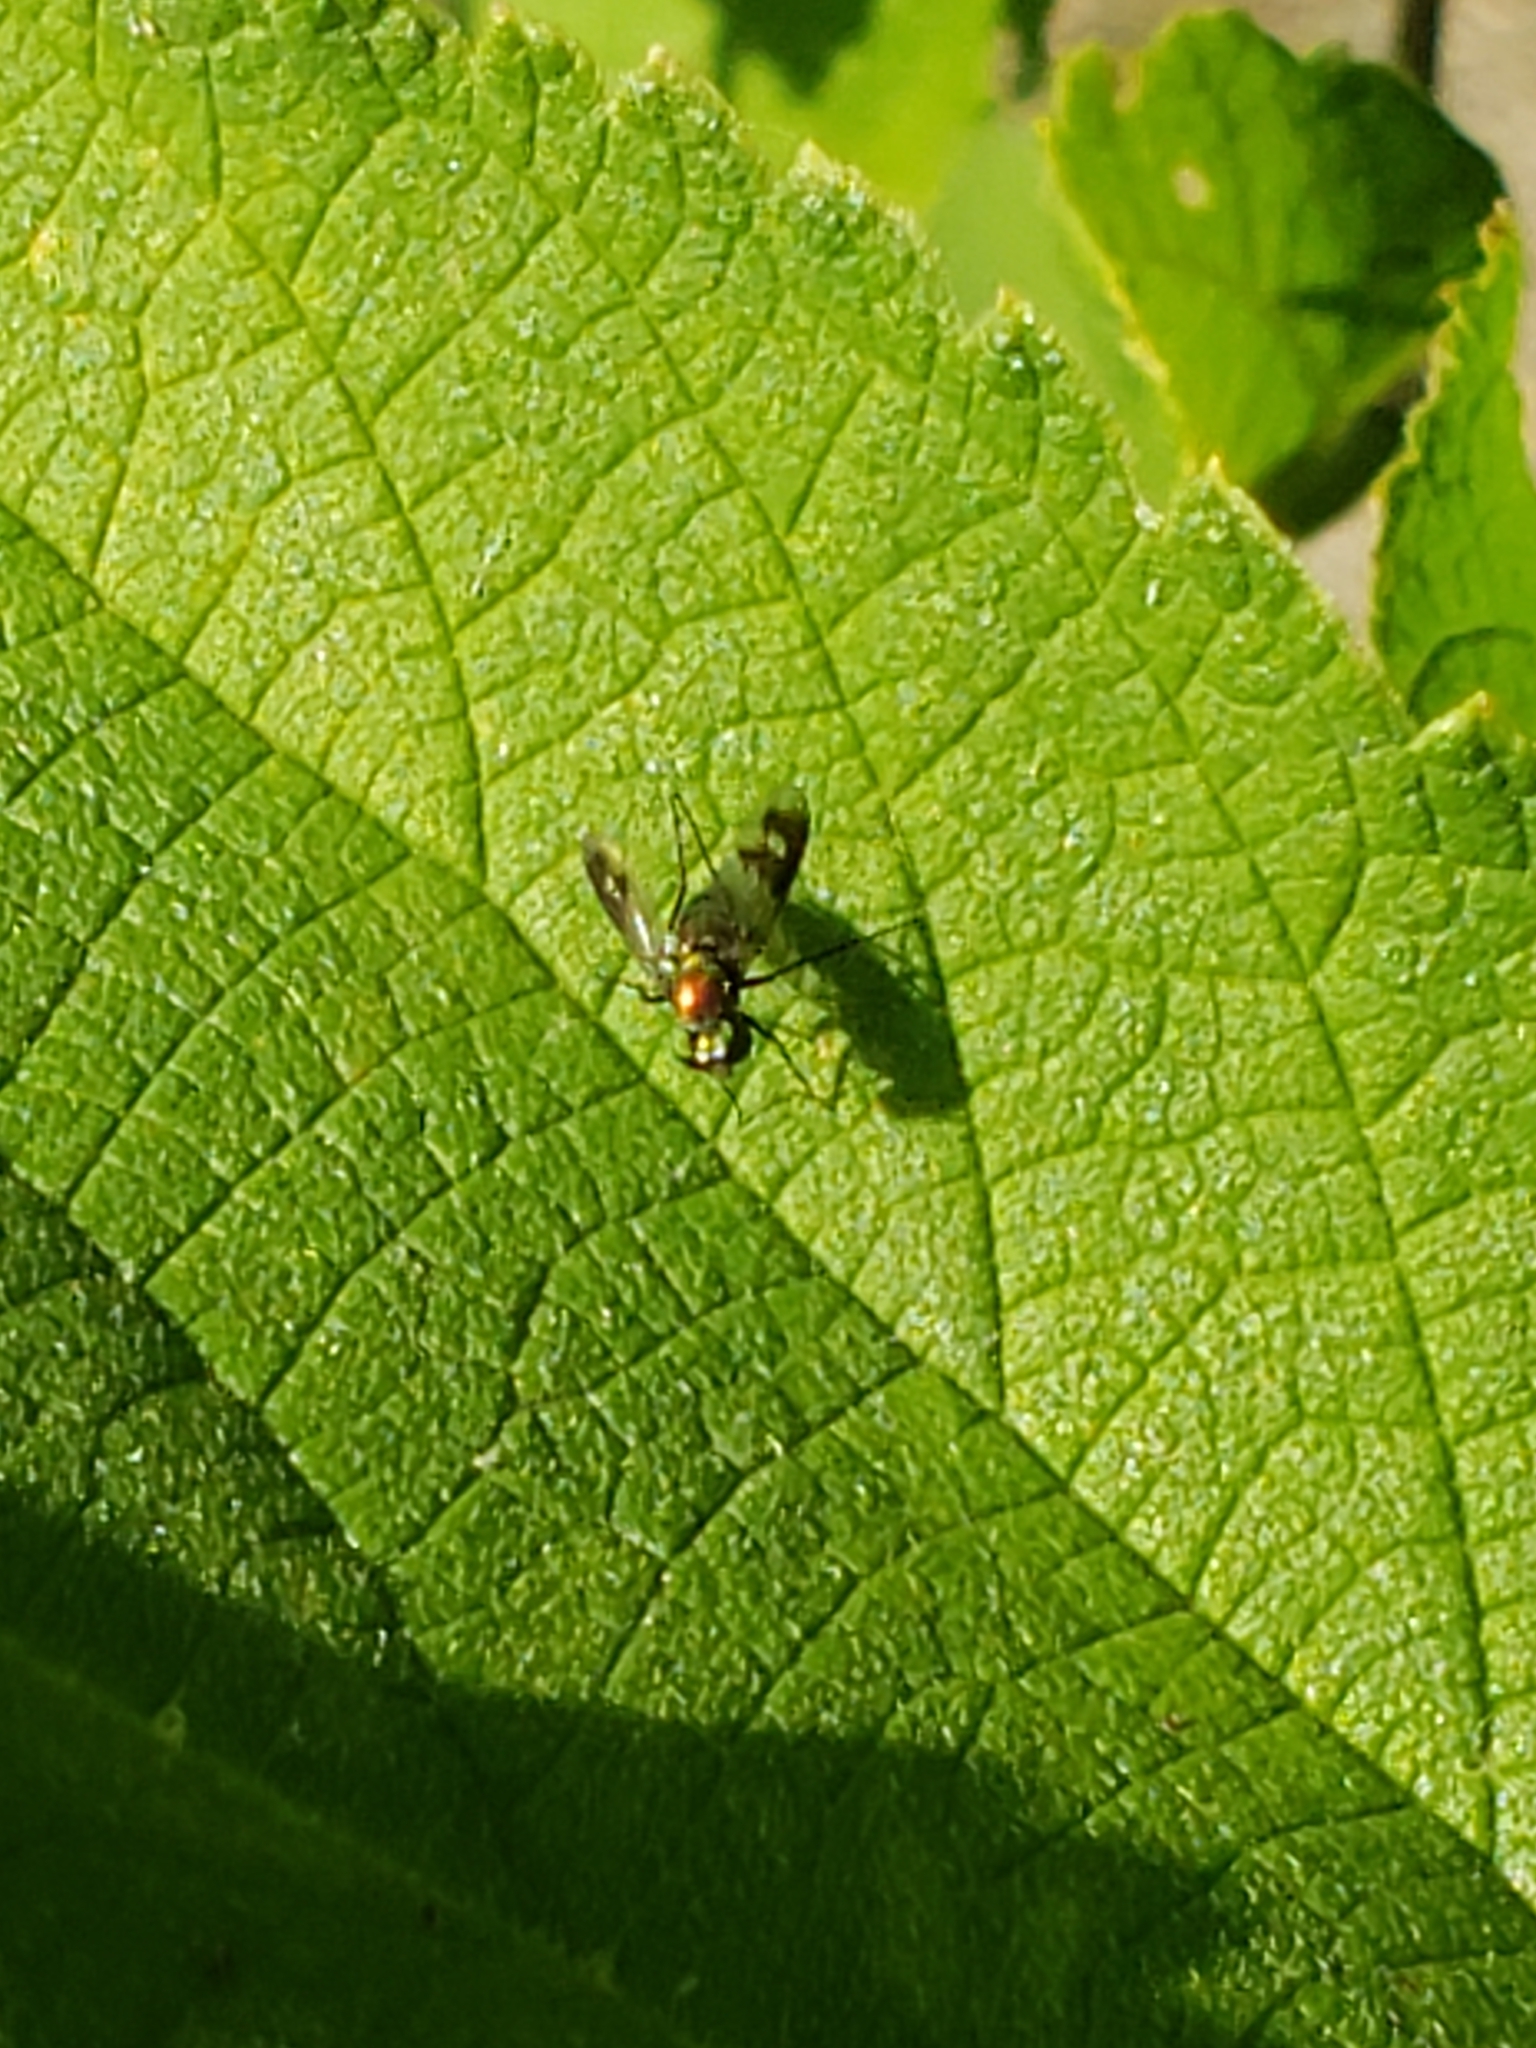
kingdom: Animalia
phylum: Arthropoda
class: Insecta
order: Diptera
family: Dolichopodidae
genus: Condylostylus
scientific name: Condylostylus patibulatus
